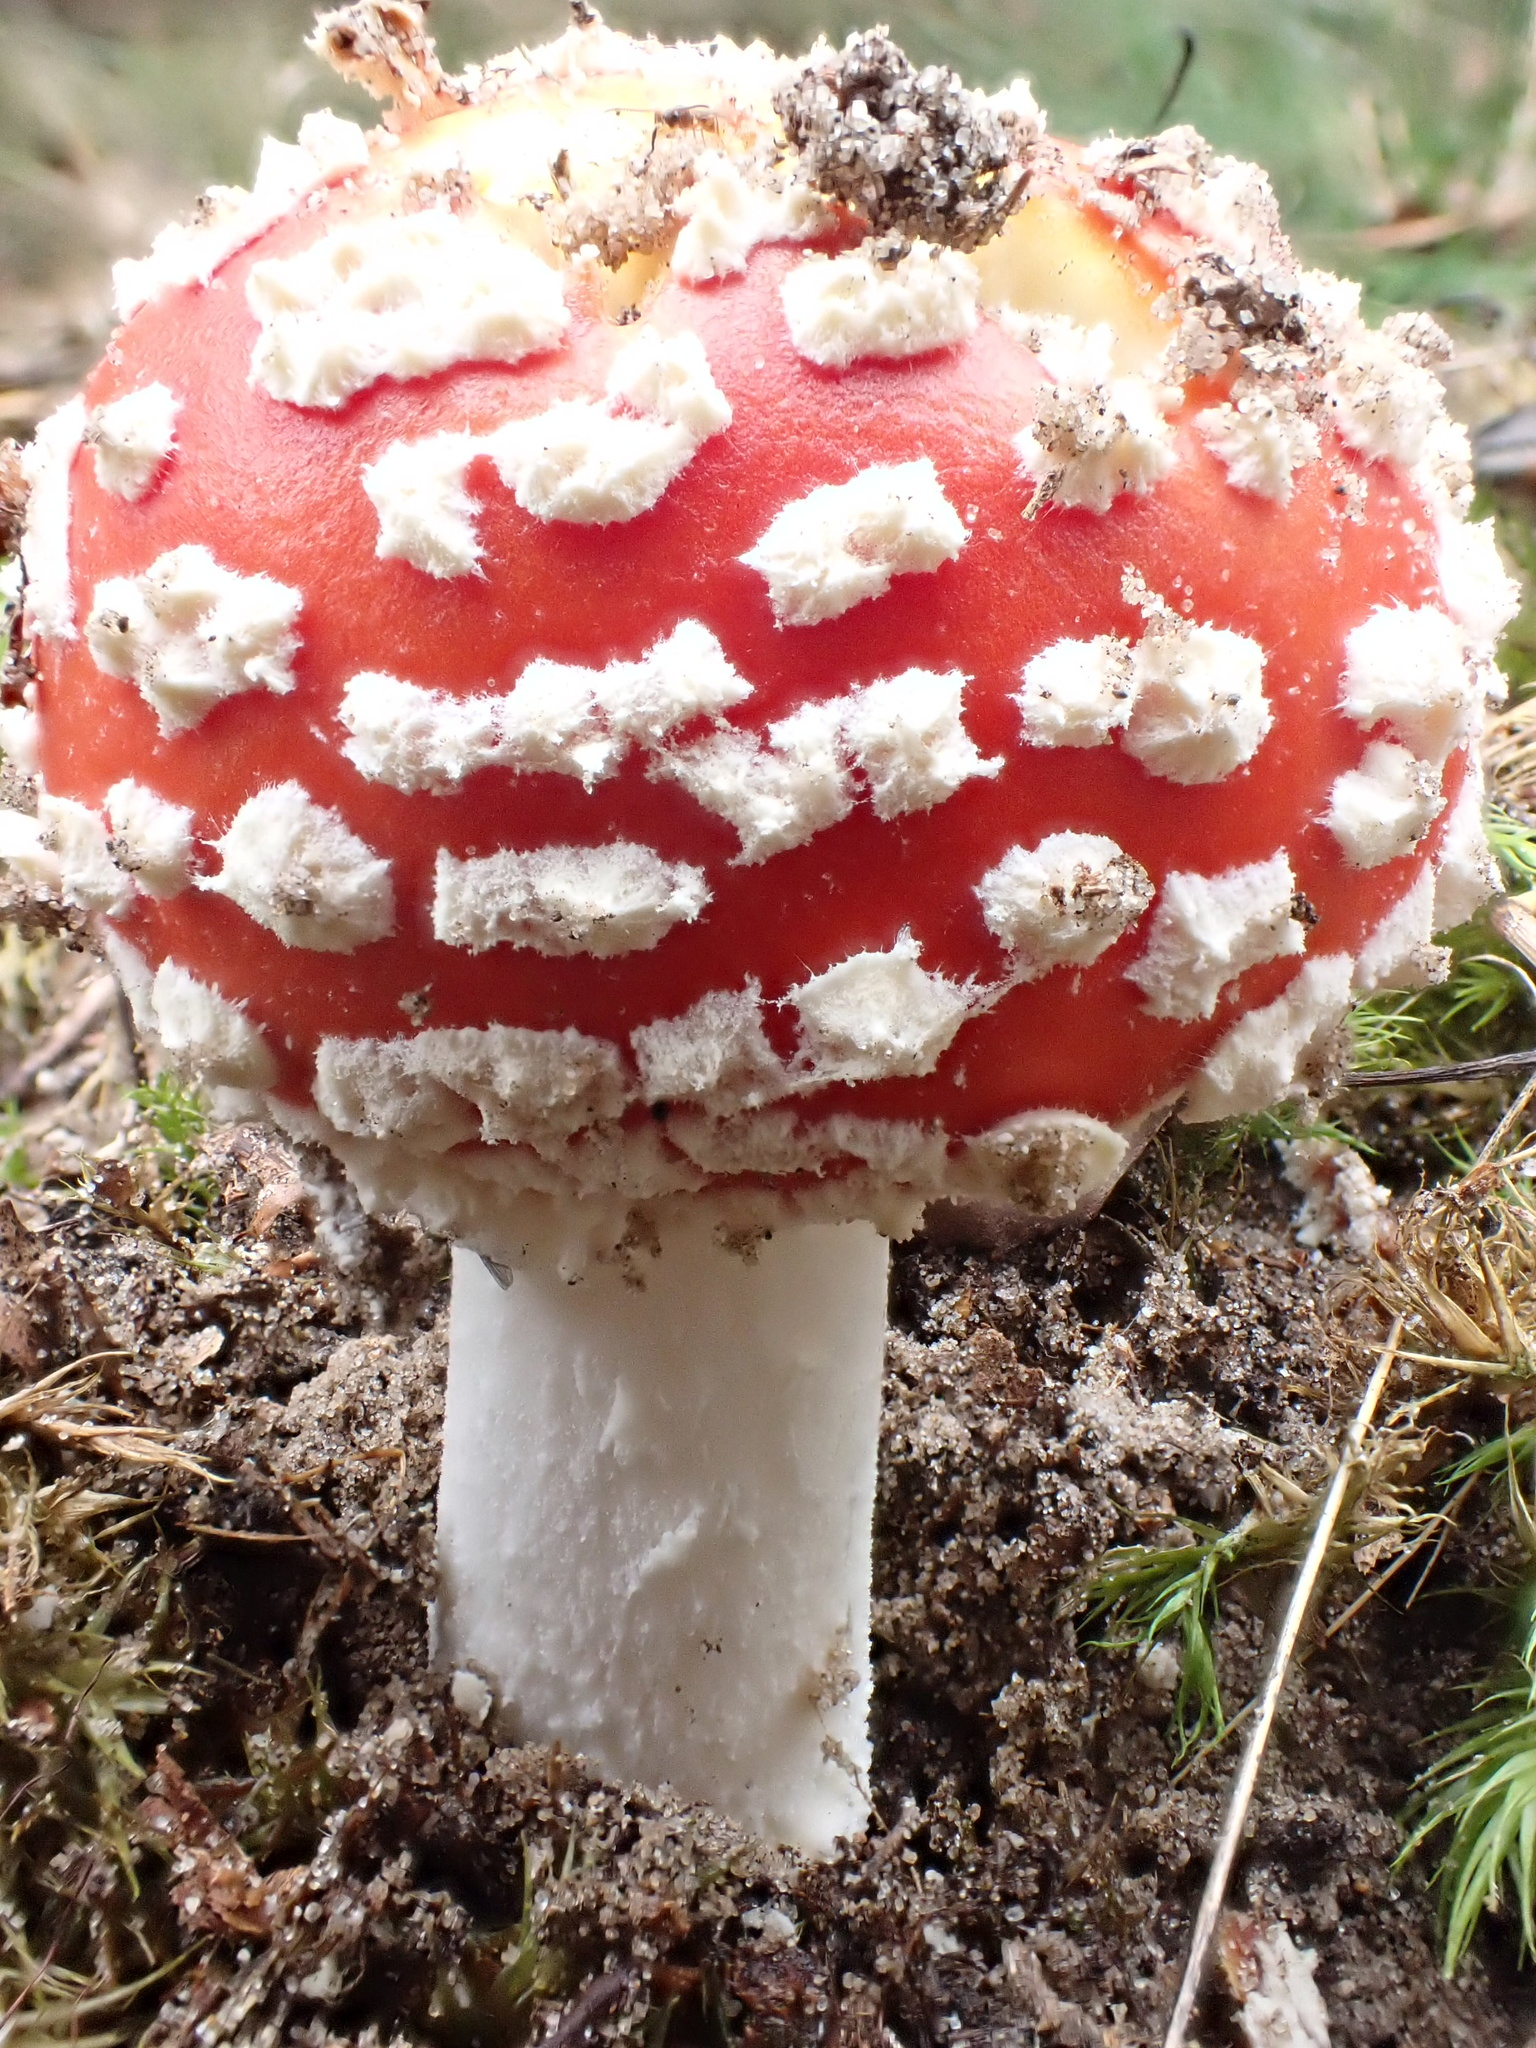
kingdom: Fungi
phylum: Basidiomycota
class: Agaricomycetes
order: Agaricales
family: Amanitaceae
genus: Amanita
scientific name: Amanita muscaria
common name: Fly agaric
